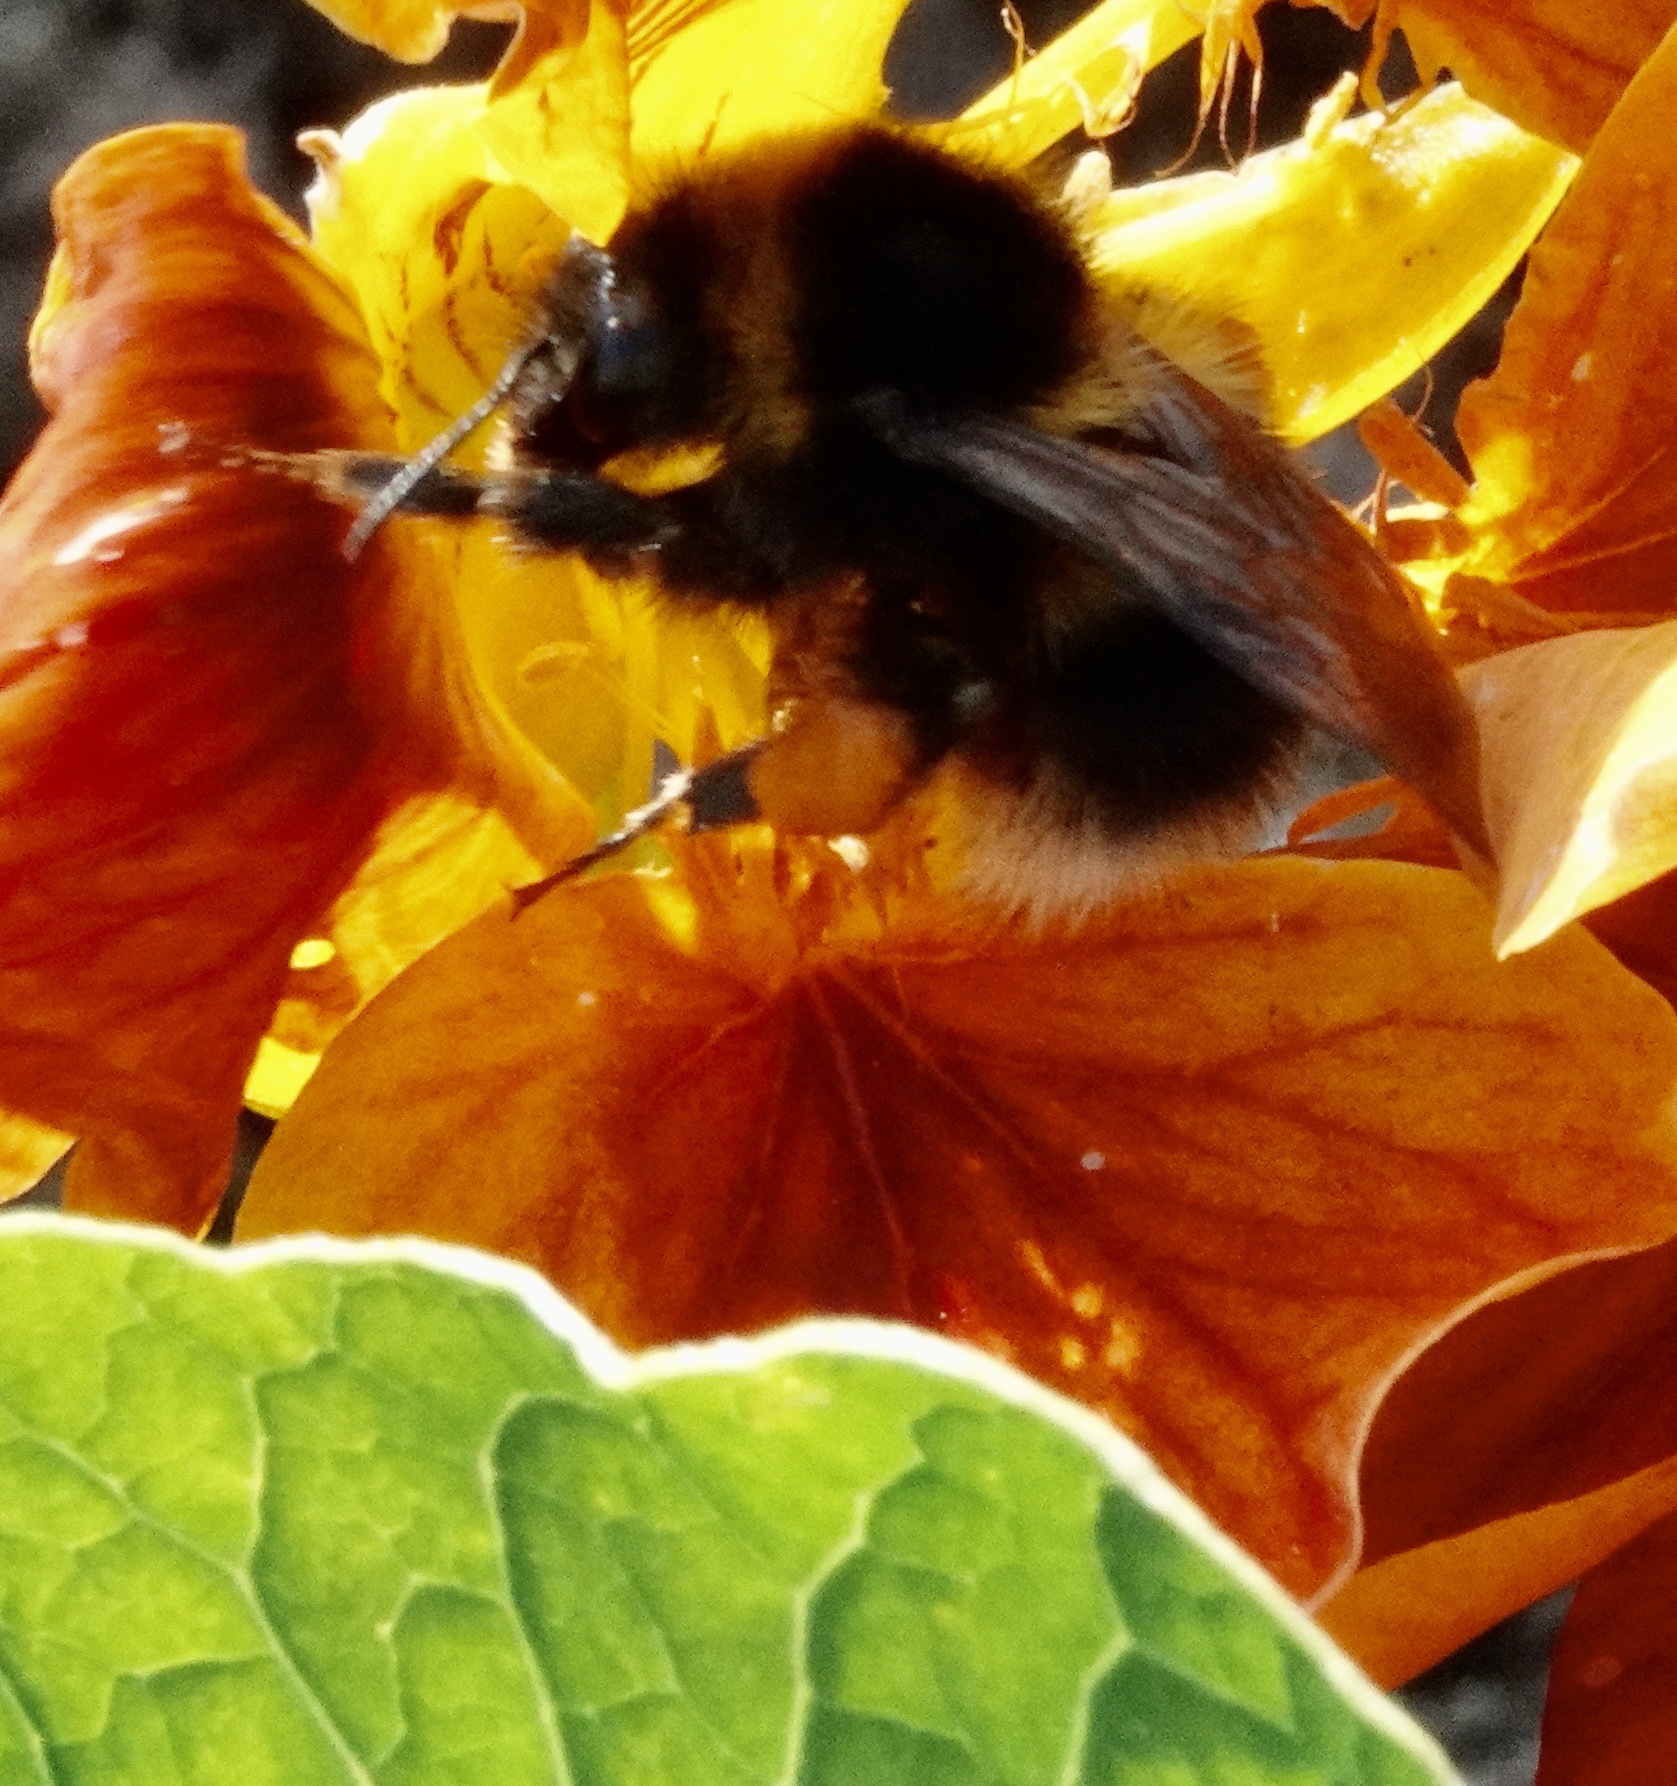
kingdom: Animalia
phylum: Arthropoda
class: Insecta
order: Hymenoptera
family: Apidae
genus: Bombus
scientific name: Bombus hortorum
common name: Garden bumblebee
